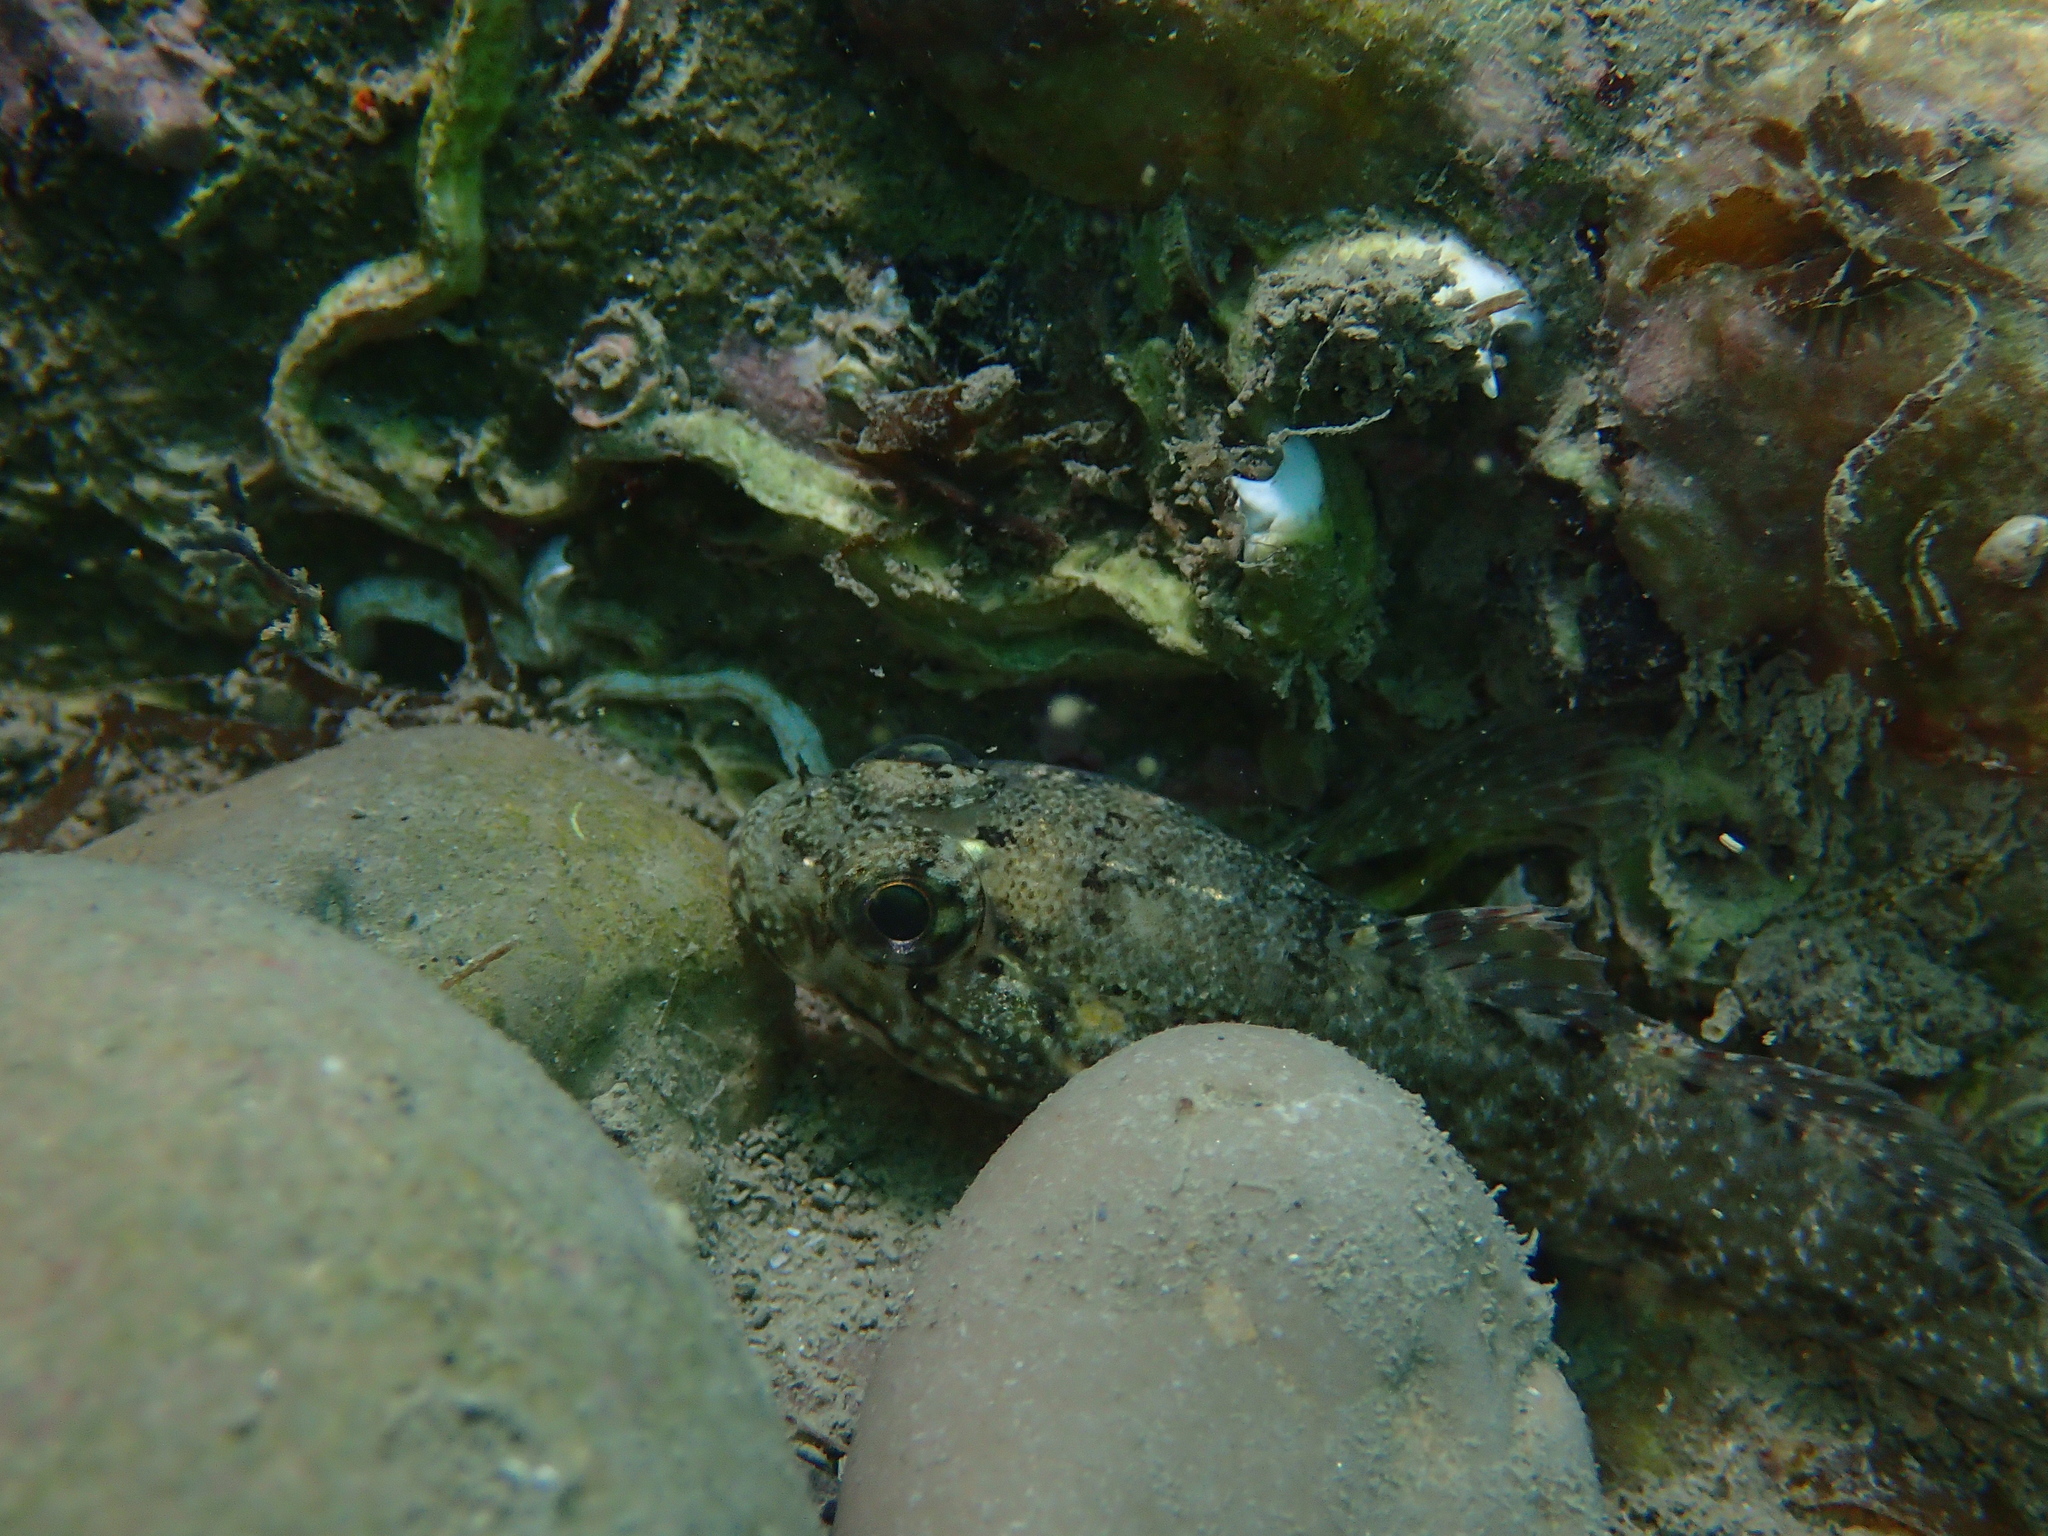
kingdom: Animalia
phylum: Chordata
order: Perciformes
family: Gobiidae
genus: Gobius
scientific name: Gobius paganellus
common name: Rock goby
